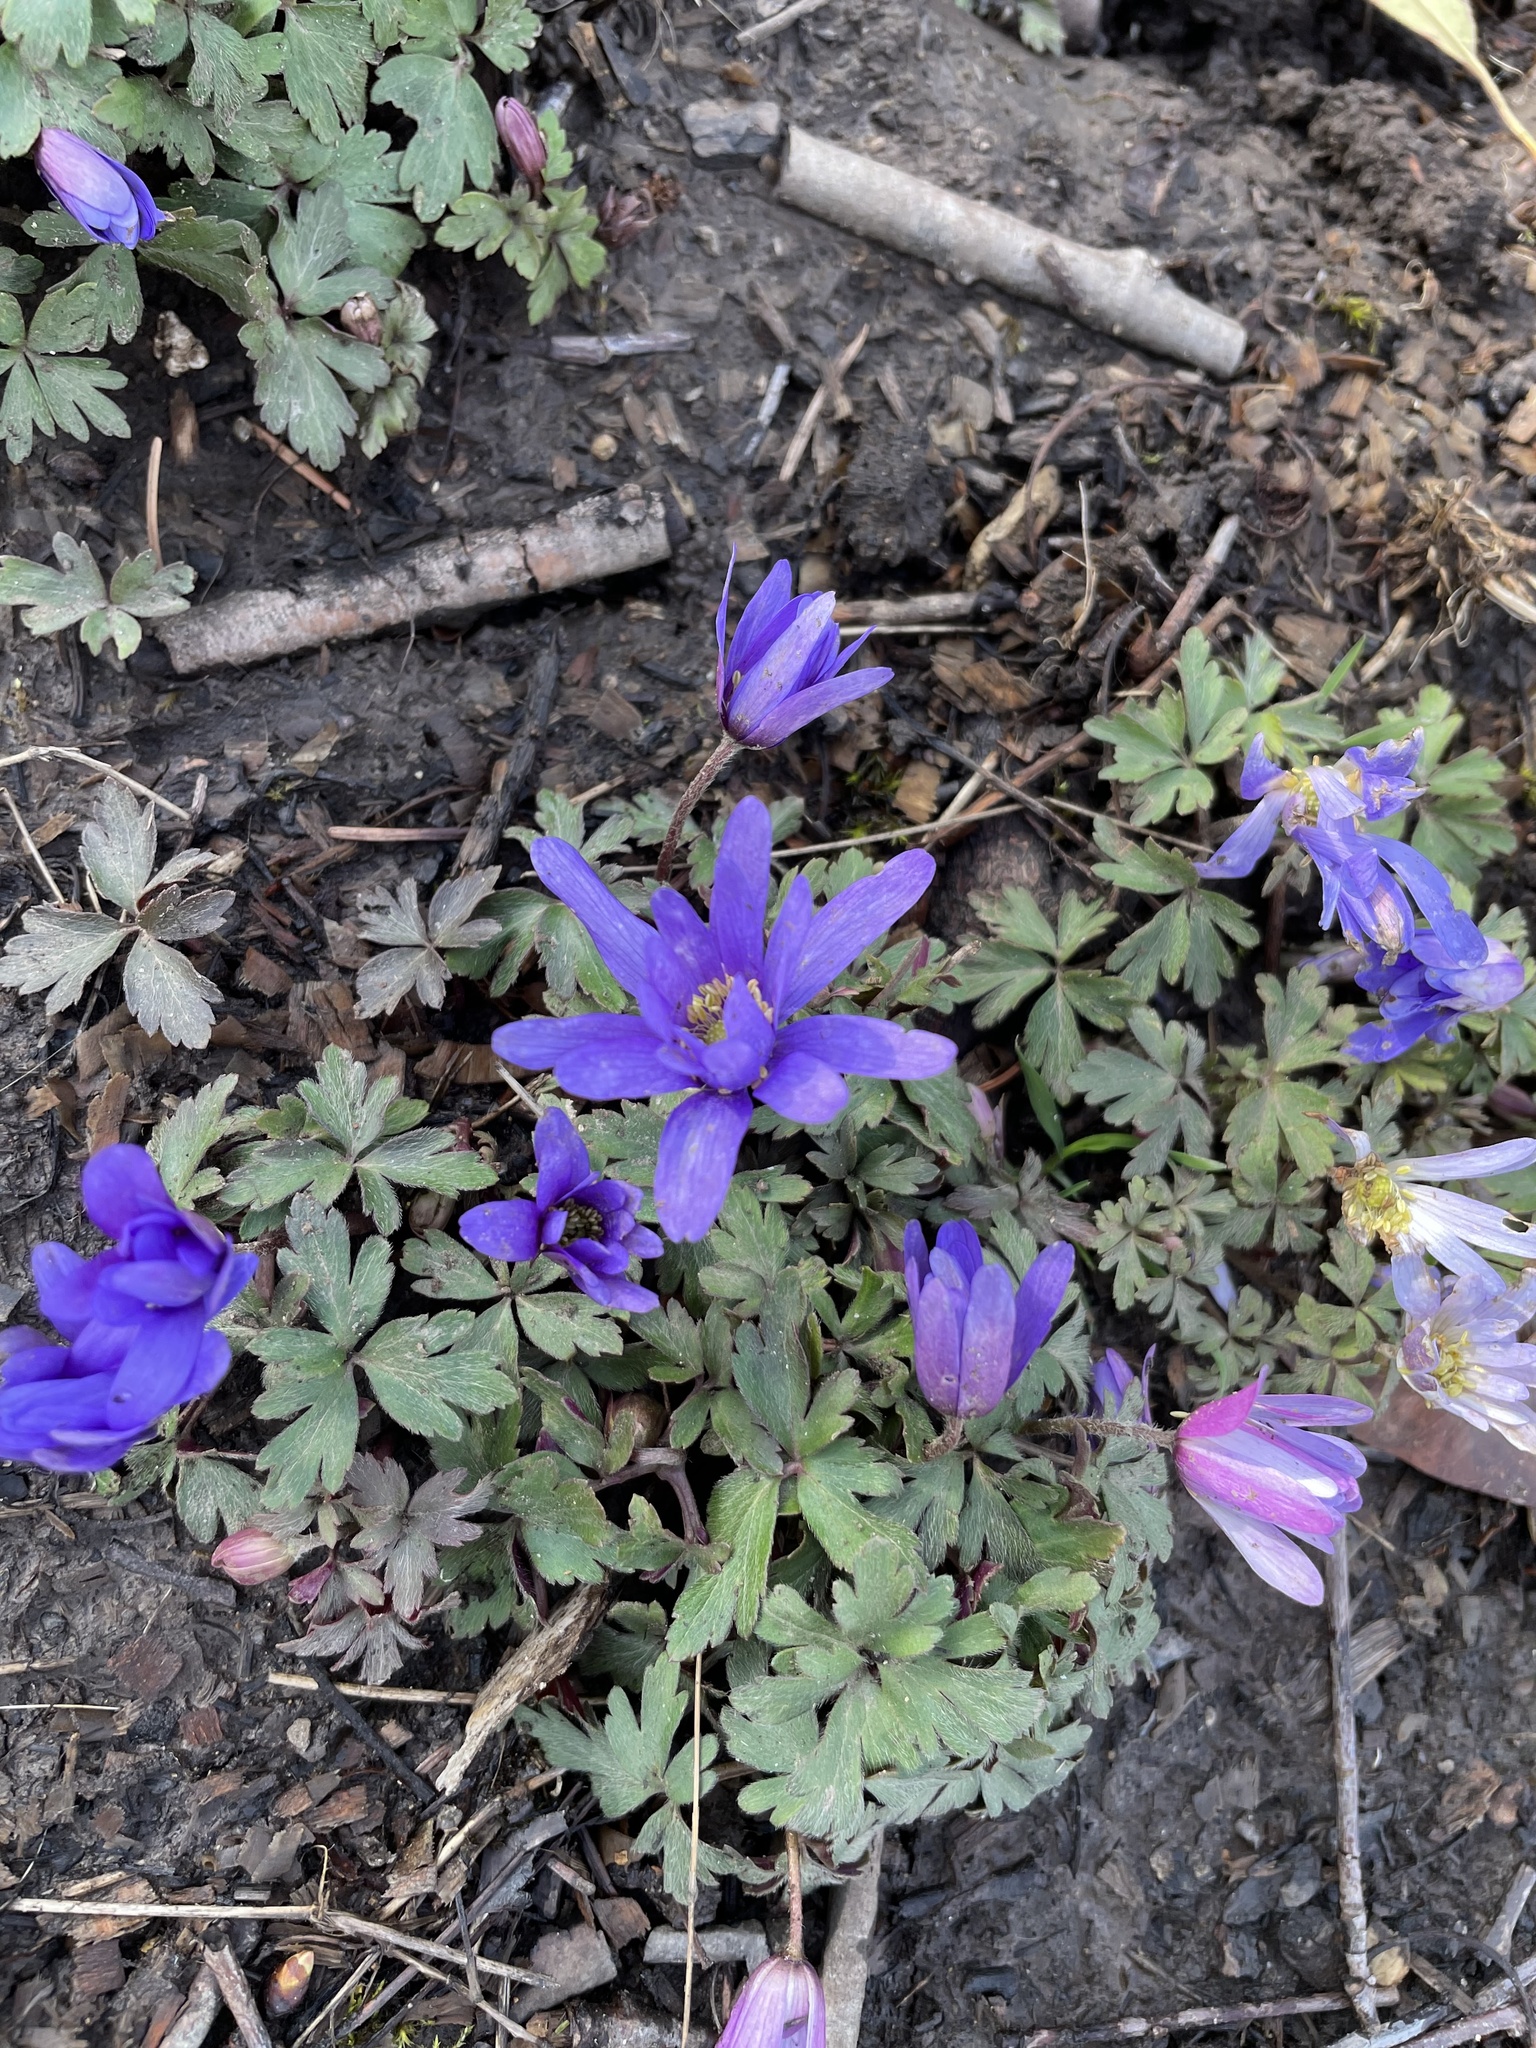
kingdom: Plantae
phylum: Tracheophyta
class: Magnoliopsida
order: Ranunculales
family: Ranunculaceae
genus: Anemone
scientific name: Anemone blanda
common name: Balkan anemone
